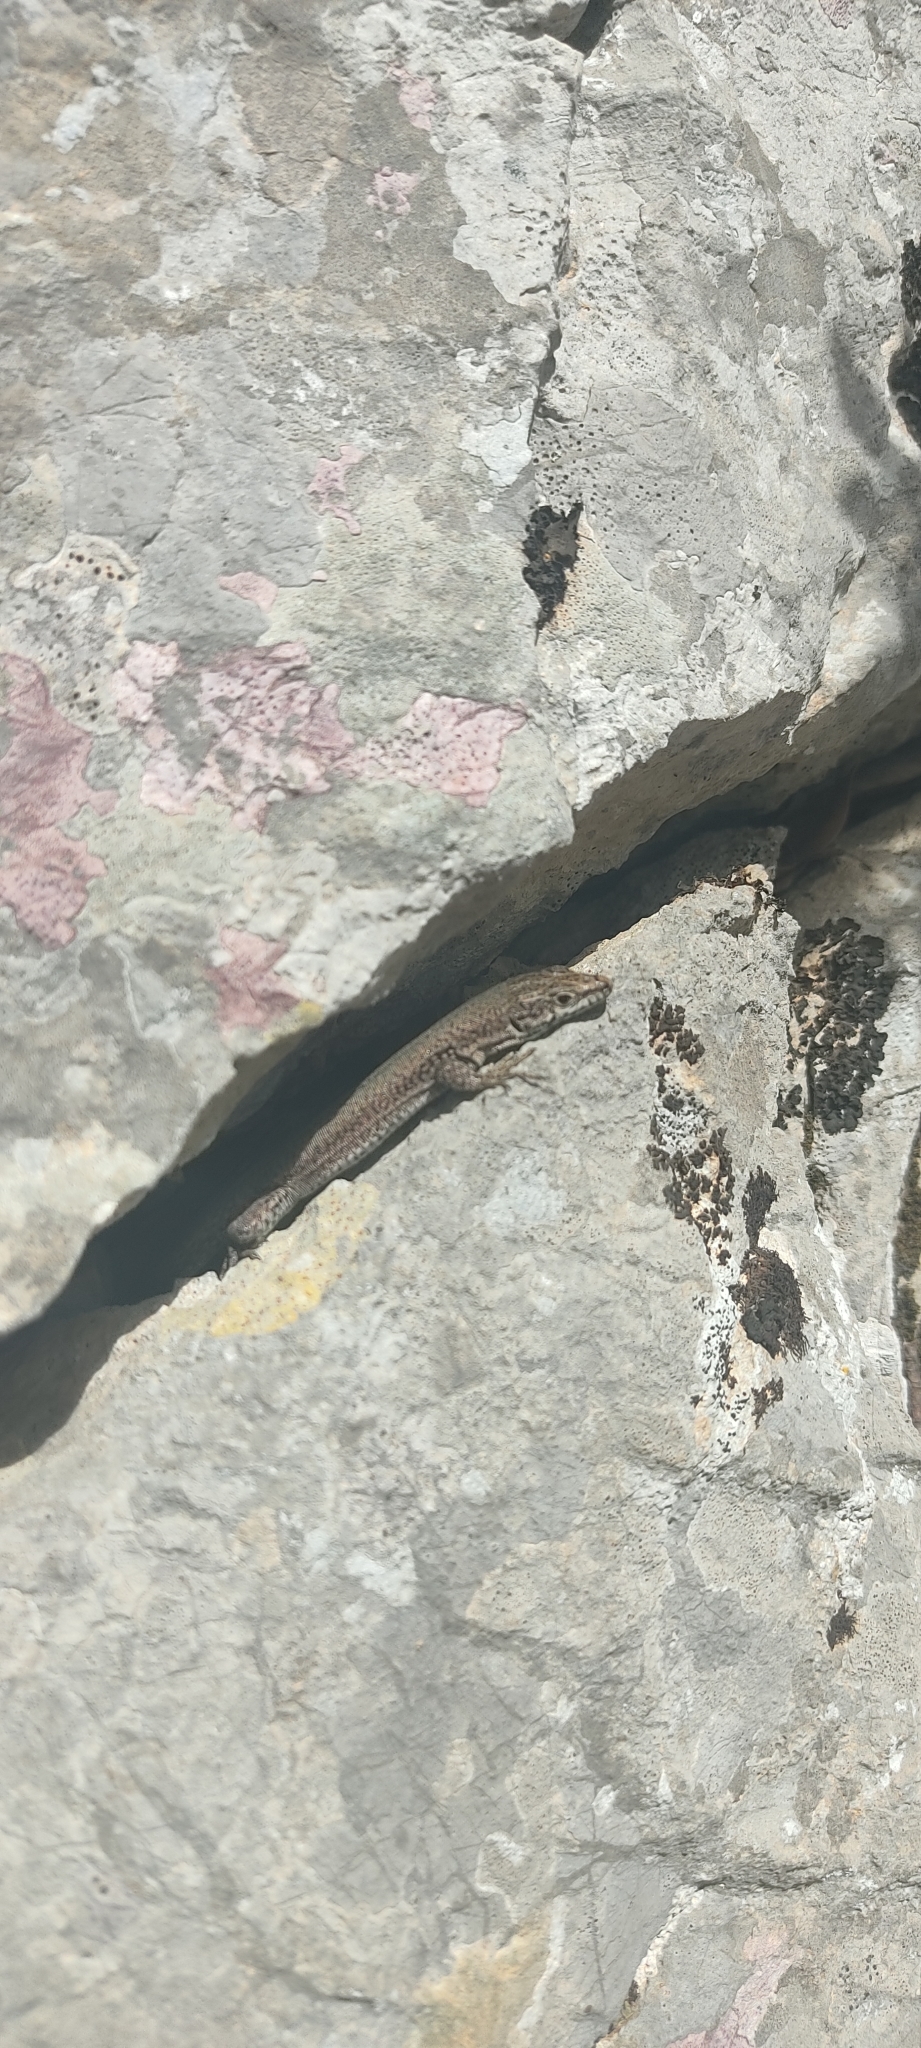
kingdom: Animalia
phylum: Chordata
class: Squamata
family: Lacertidae
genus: Podarcis
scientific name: Podarcis liolepis
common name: Catalonian wall lizard
